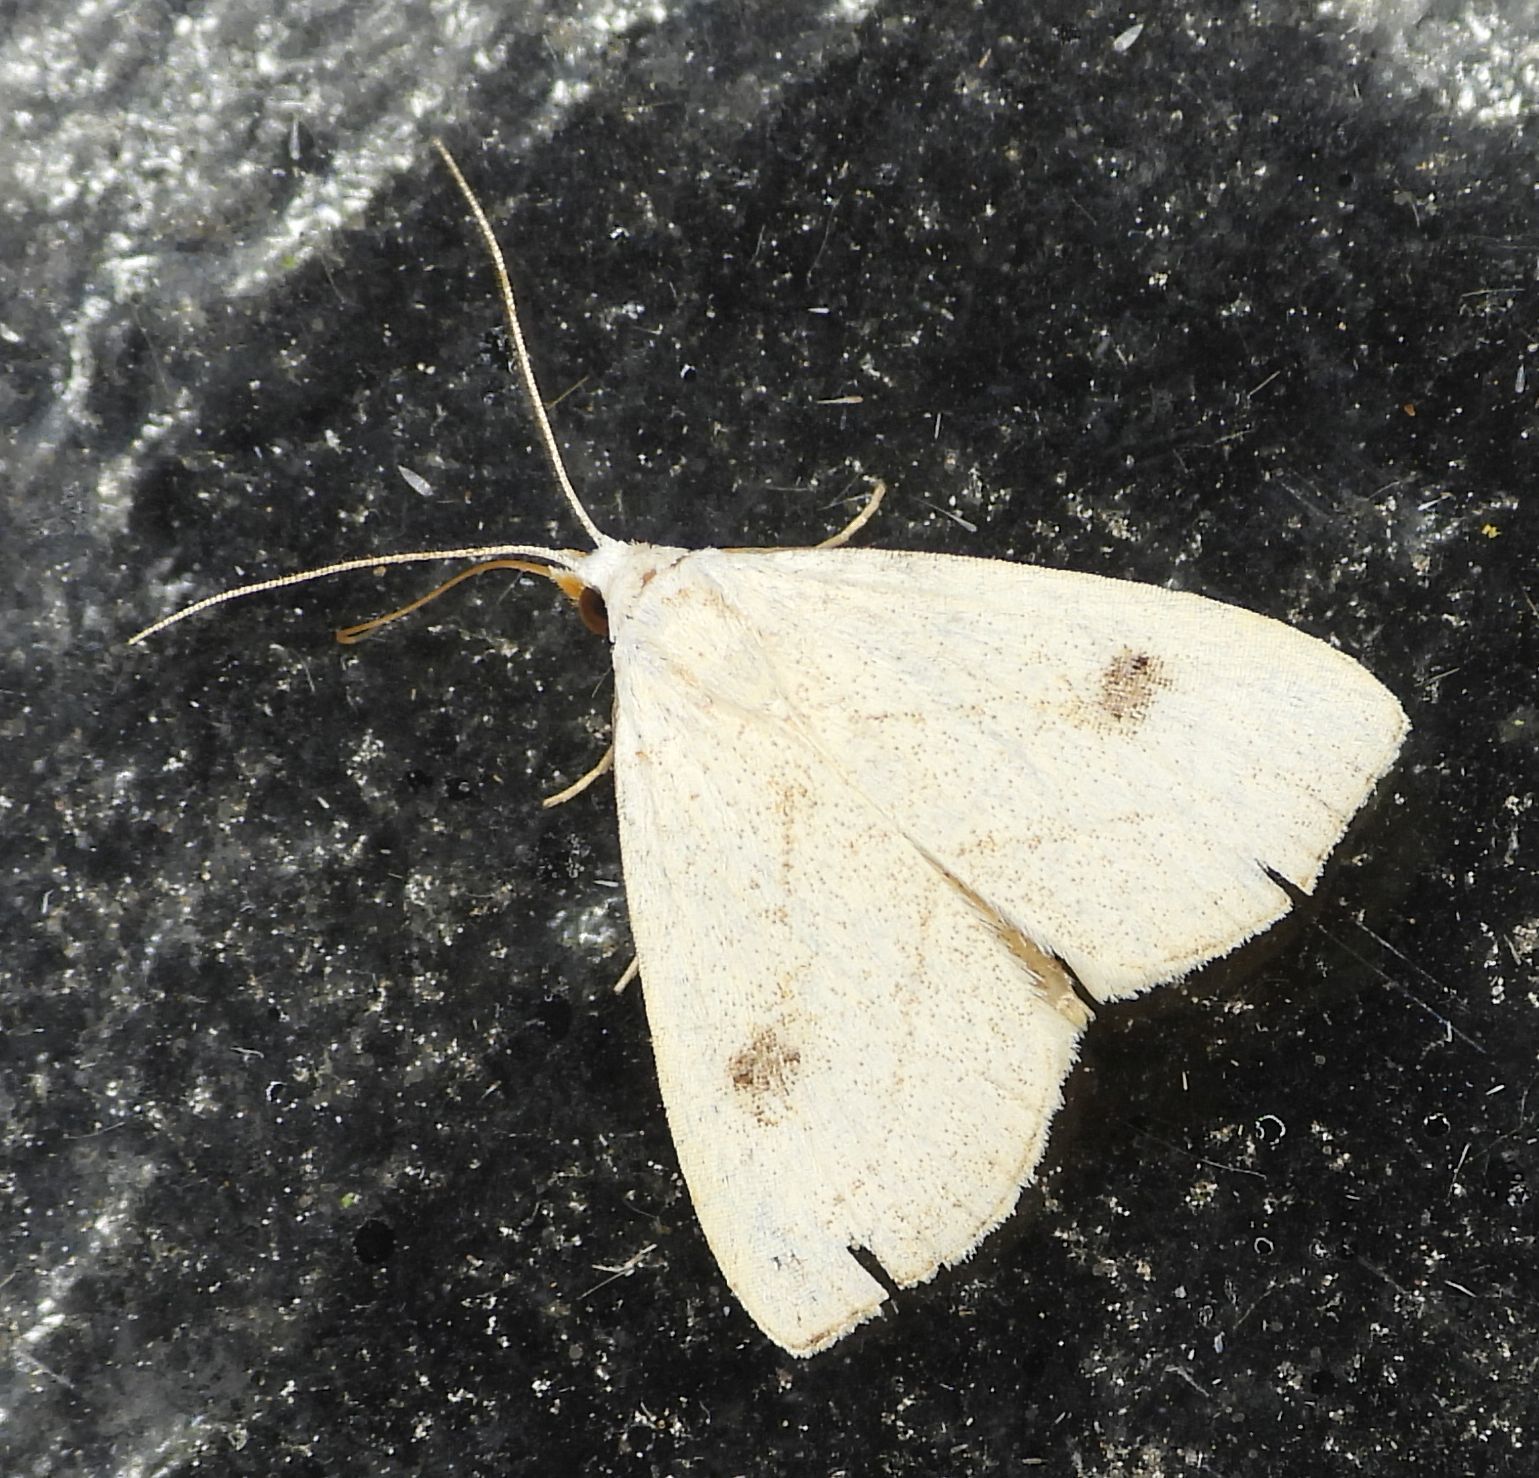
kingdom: Animalia
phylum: Arthropoda
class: Insecta
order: Lepidoptera
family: Erebidae
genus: Rivula
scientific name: Rivula propinqualis
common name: Spotted grass moth
